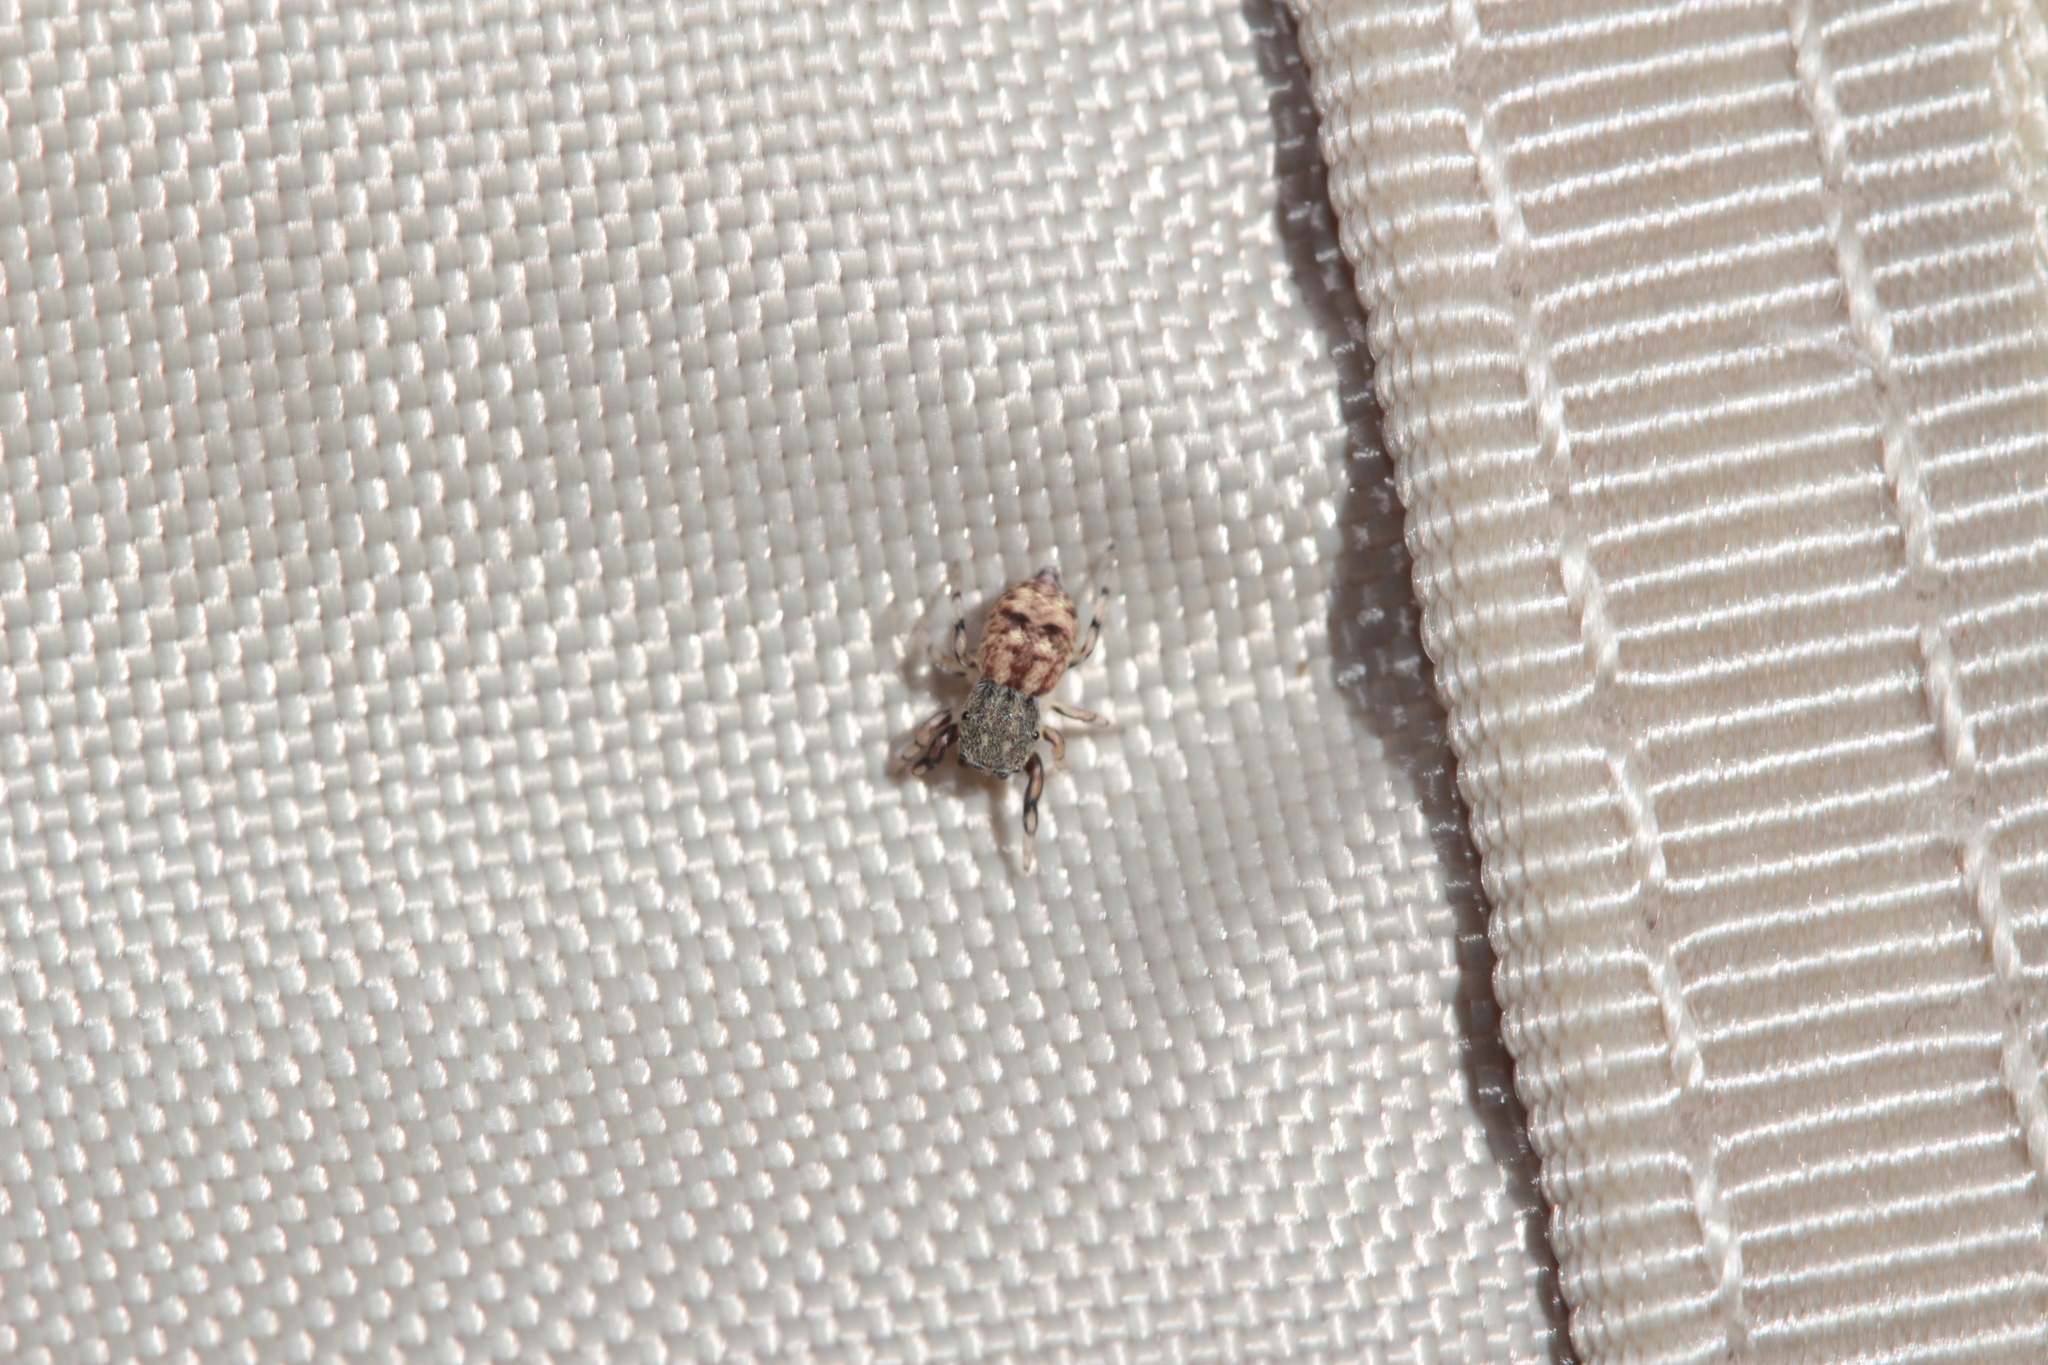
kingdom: Animalia
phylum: Arthropoda
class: Arachnida
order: Araneae
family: Salticidae
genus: Ballus
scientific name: Ballus chalybeius
